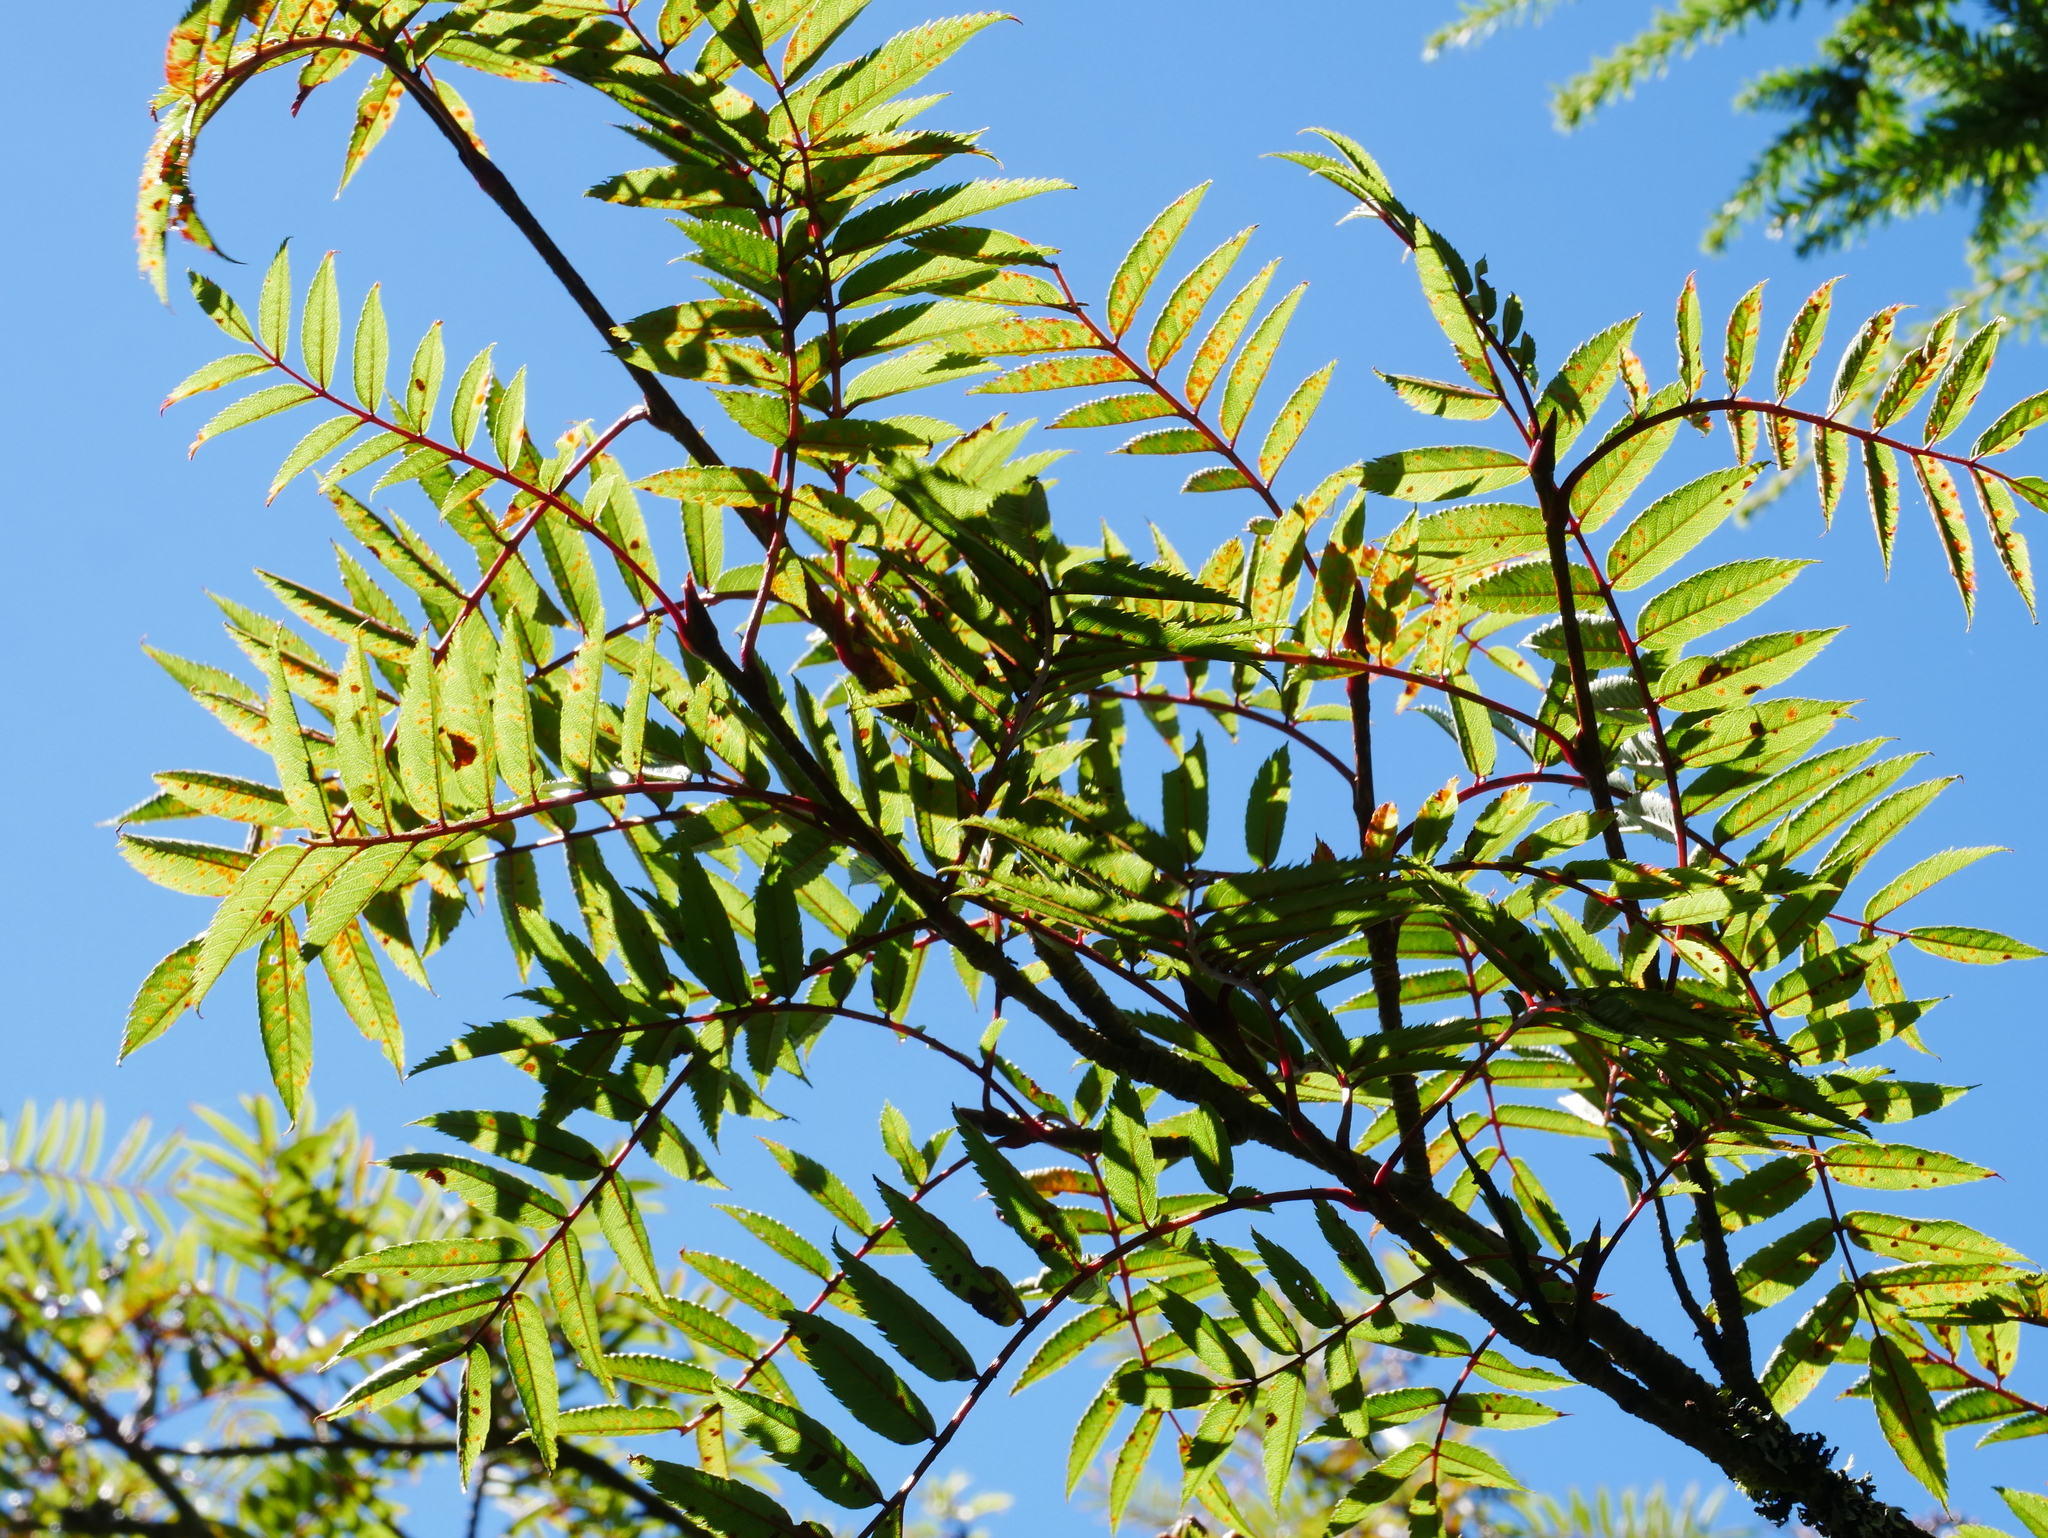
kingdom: Plantae
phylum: Tracheophyta
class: Magnoliopsida
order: Rosales
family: Rosaceae
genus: Sorbus
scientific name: Sorbus randaiensis
